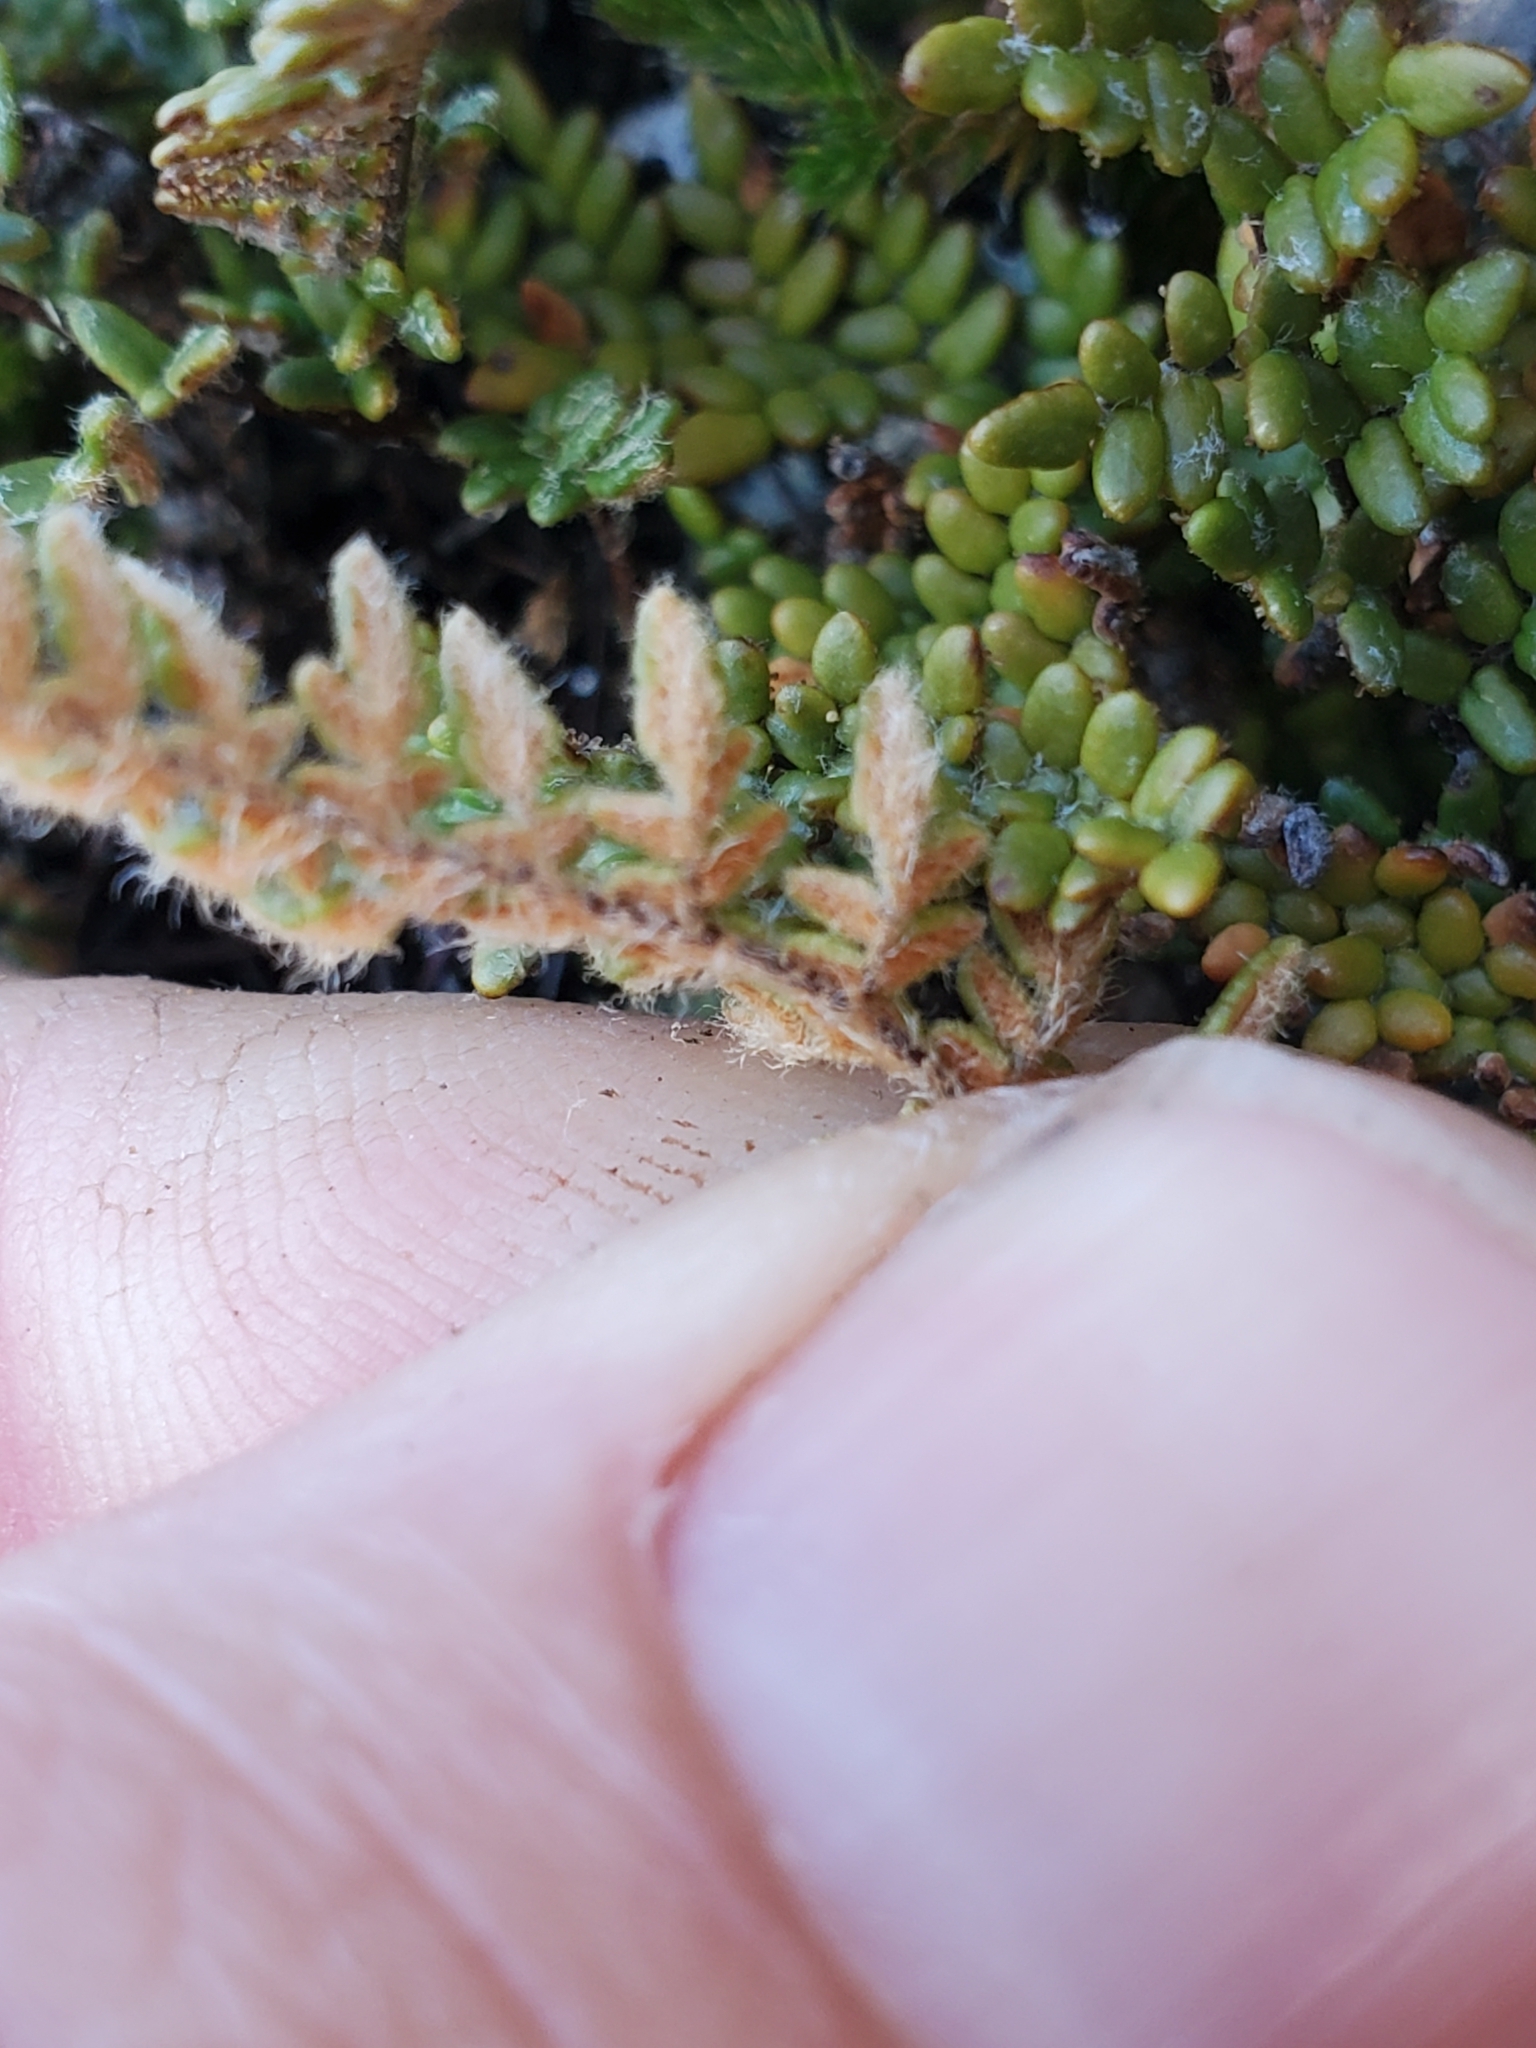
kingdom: Plantae
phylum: Tracheophyta
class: Polypodiopsida
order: Polypodiales
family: Pteridaceae
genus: Myriopteris
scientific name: Myriopteris gracillima
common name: Lace fern
